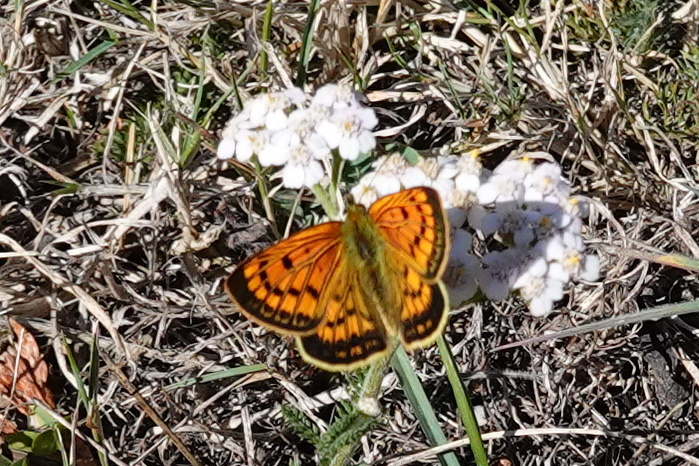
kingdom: Animalia
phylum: Arthropoda
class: Insecta
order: Lepidoptera
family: Lycaenidae
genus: Lycaena
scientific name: Lycaena
